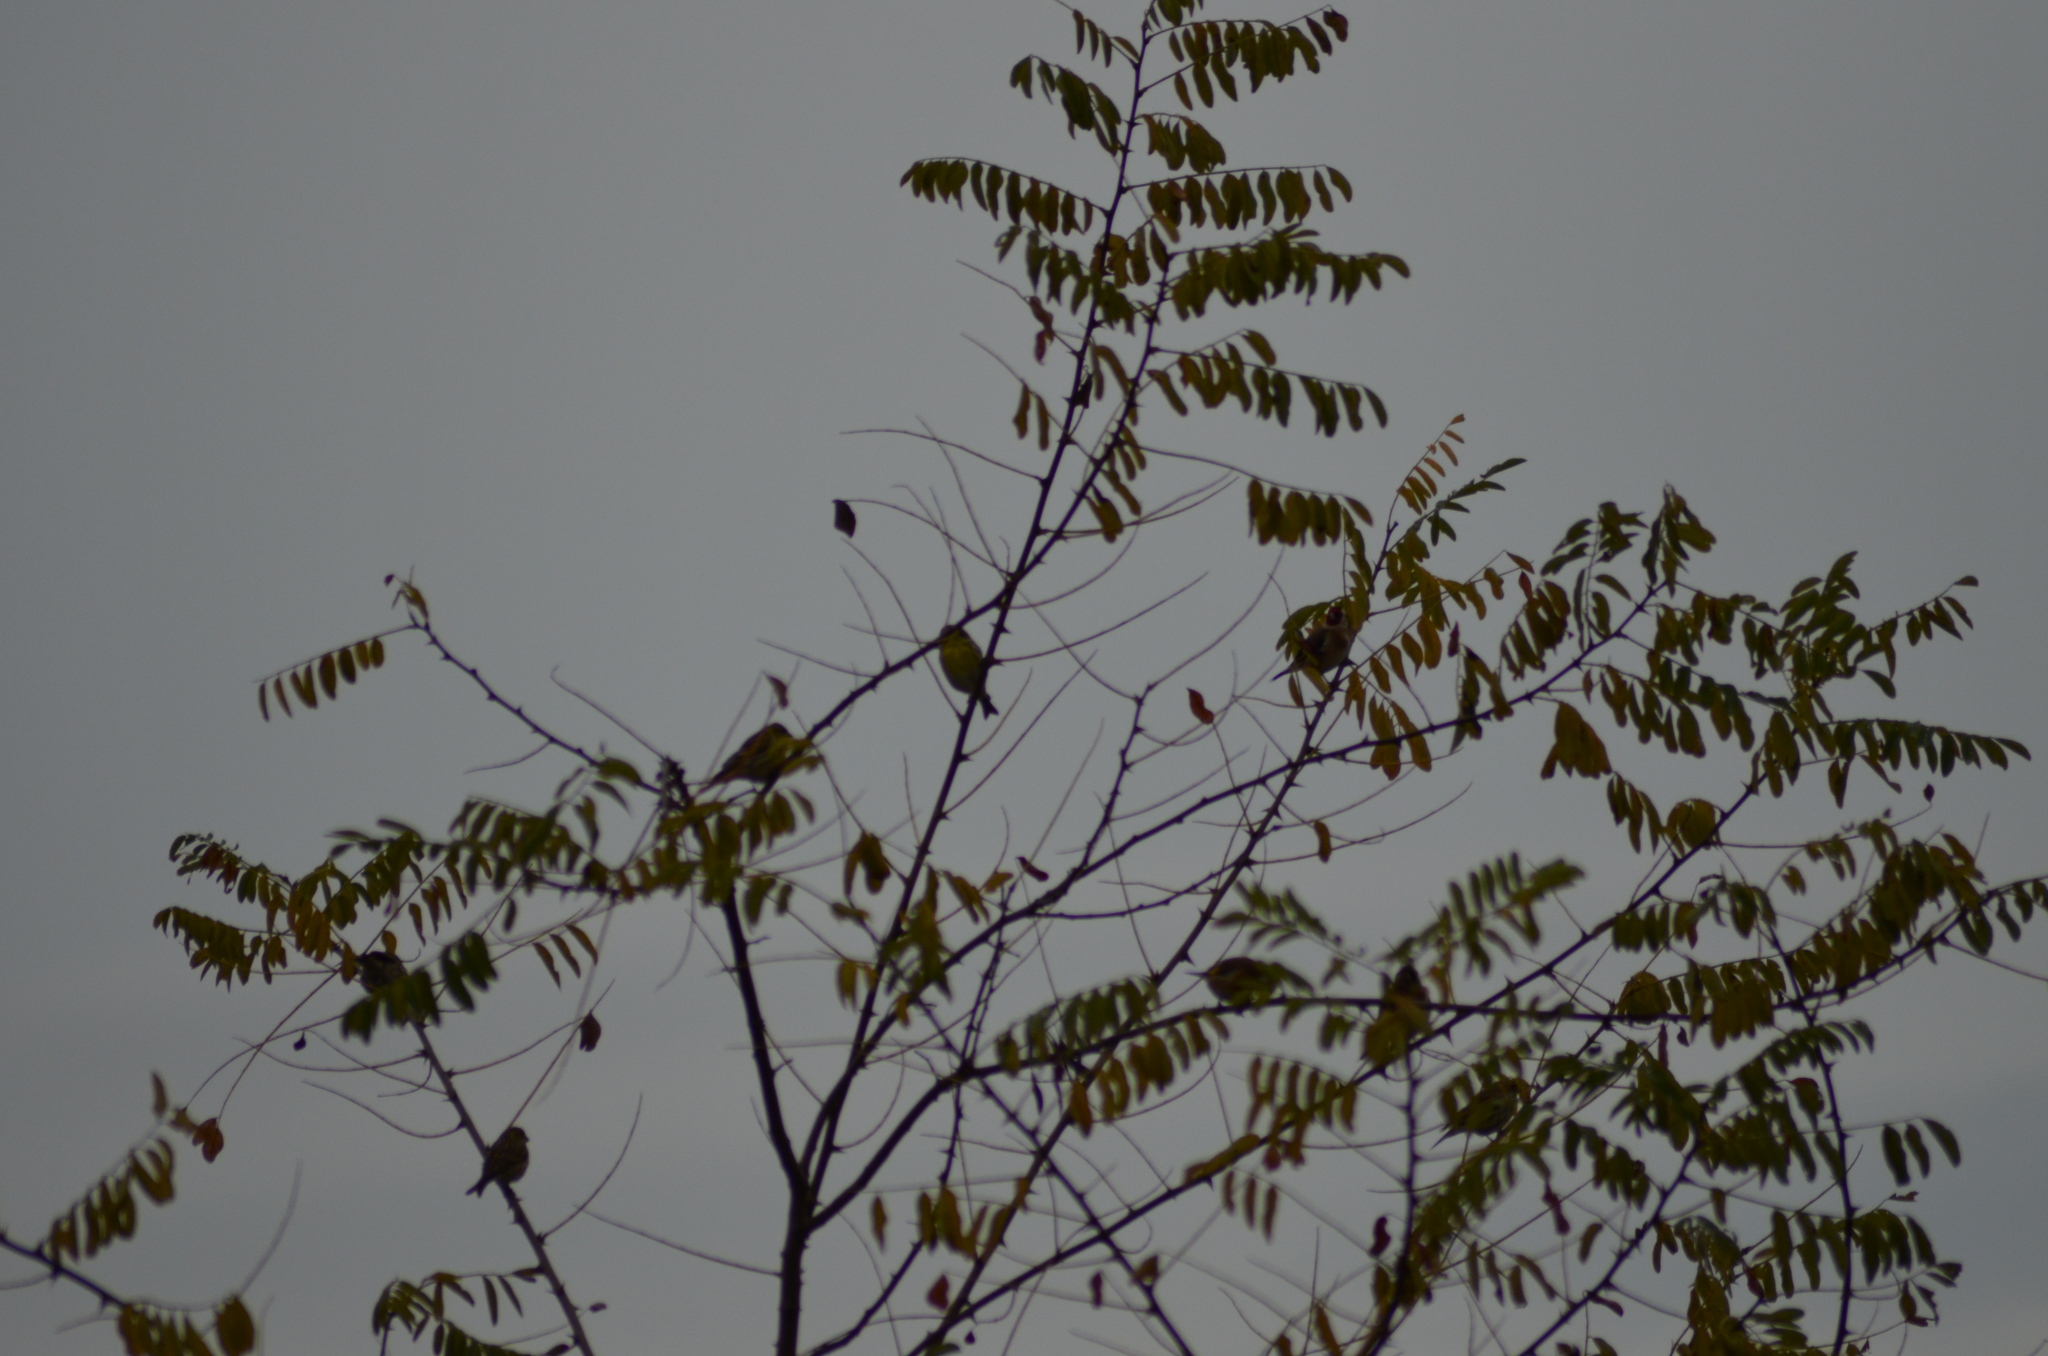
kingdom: Animalia
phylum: Chordata
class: Aves
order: Passeriformes
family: Fringillidae
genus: Carduelis
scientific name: Carduelis carduelis
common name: European goldfinch
